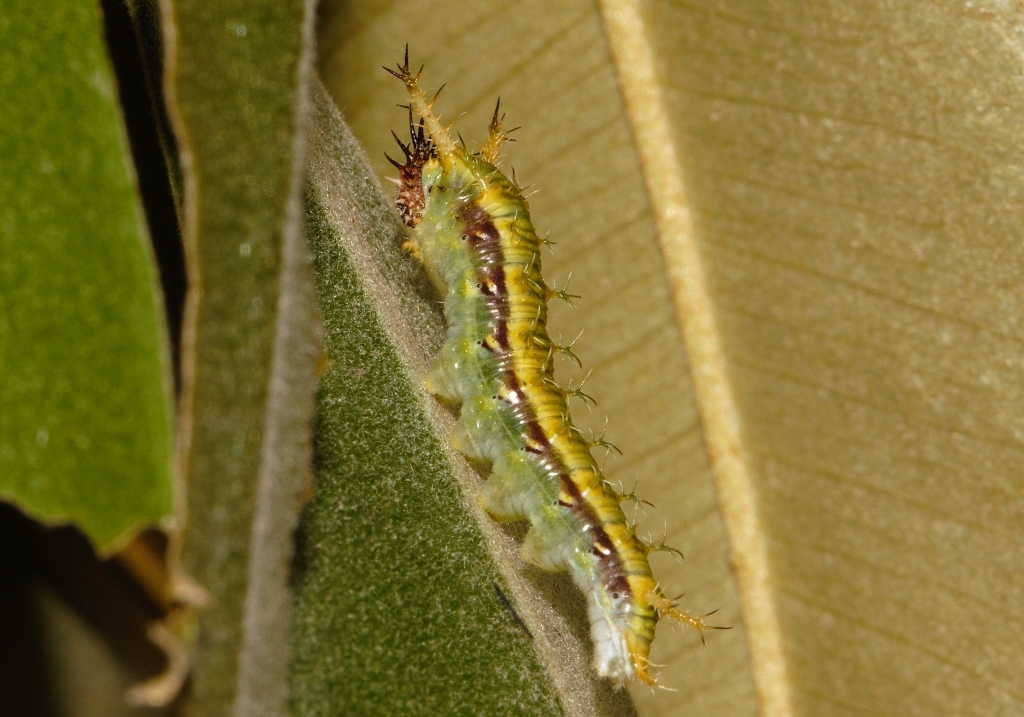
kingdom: Animalia
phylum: Arthropoda
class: Insecta
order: Lepidoptera
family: Nymphalidae
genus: Chloropoea
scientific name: Chloropoea lucretia
